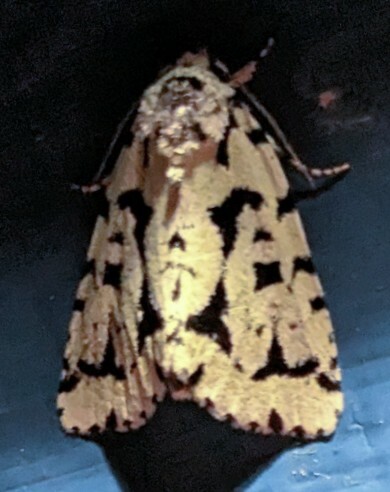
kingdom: Animalia
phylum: Arthropoda
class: Insecta
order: Lepidoptera
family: Noctuidae
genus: Acronicta
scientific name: Acronicta fallax
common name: Green marvel
